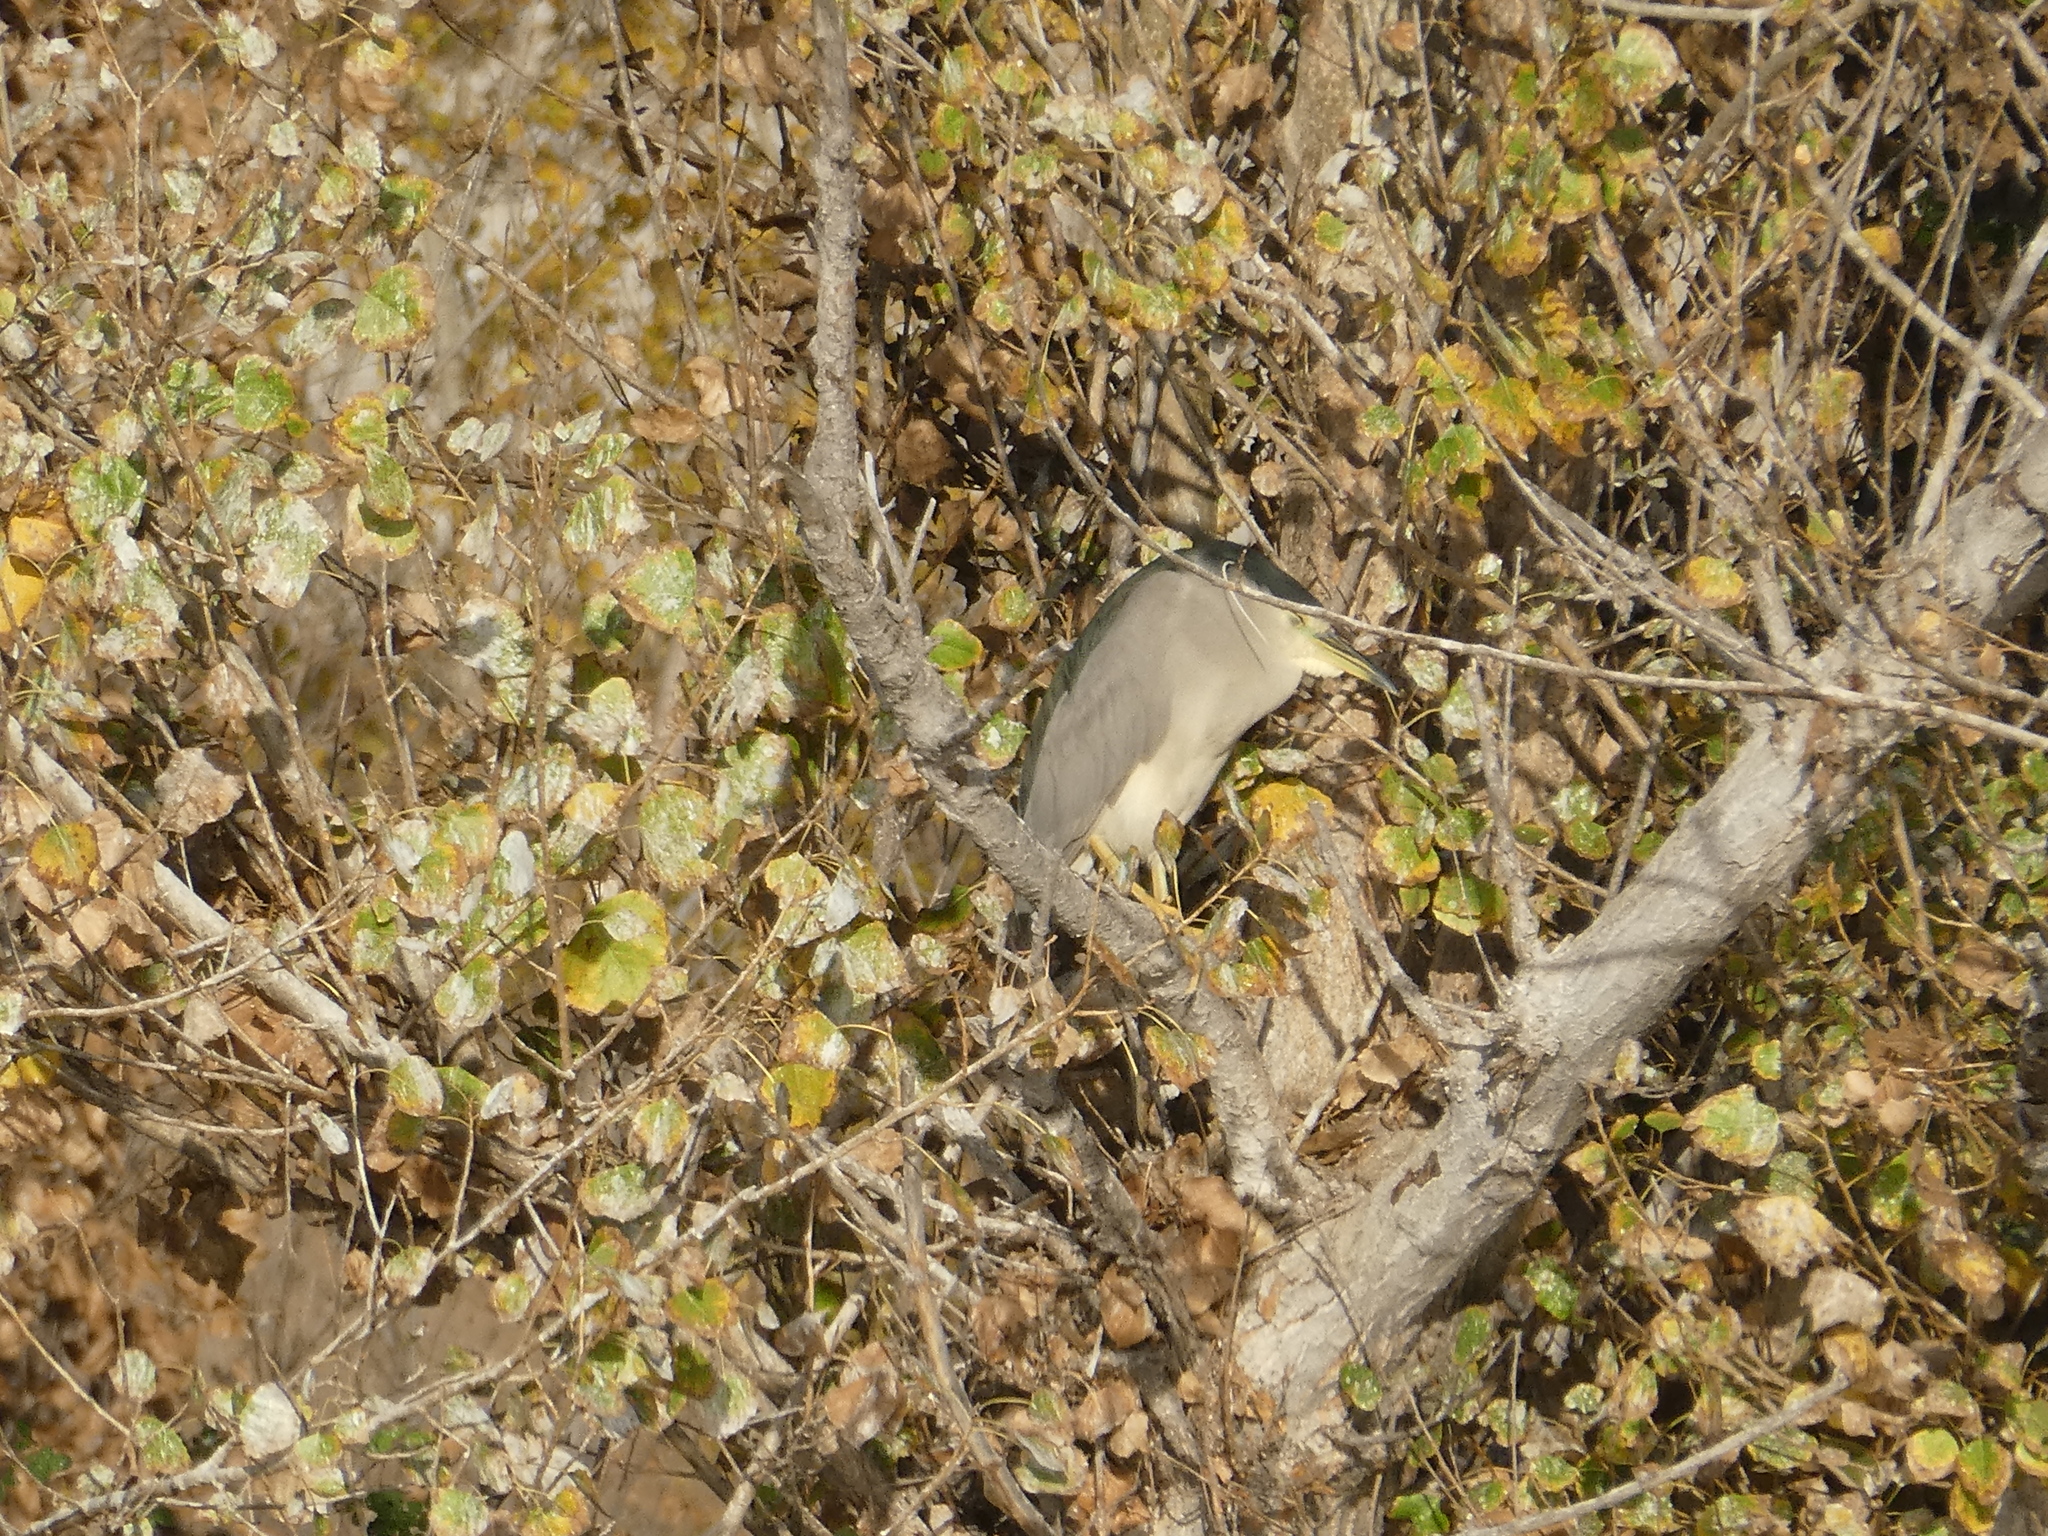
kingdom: Animalia
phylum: Chordata
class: Aves
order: Pelecaniformes
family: Ardeidae
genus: Nycticorax
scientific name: Nycticorax nycticorax
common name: Black-crowned night heron
